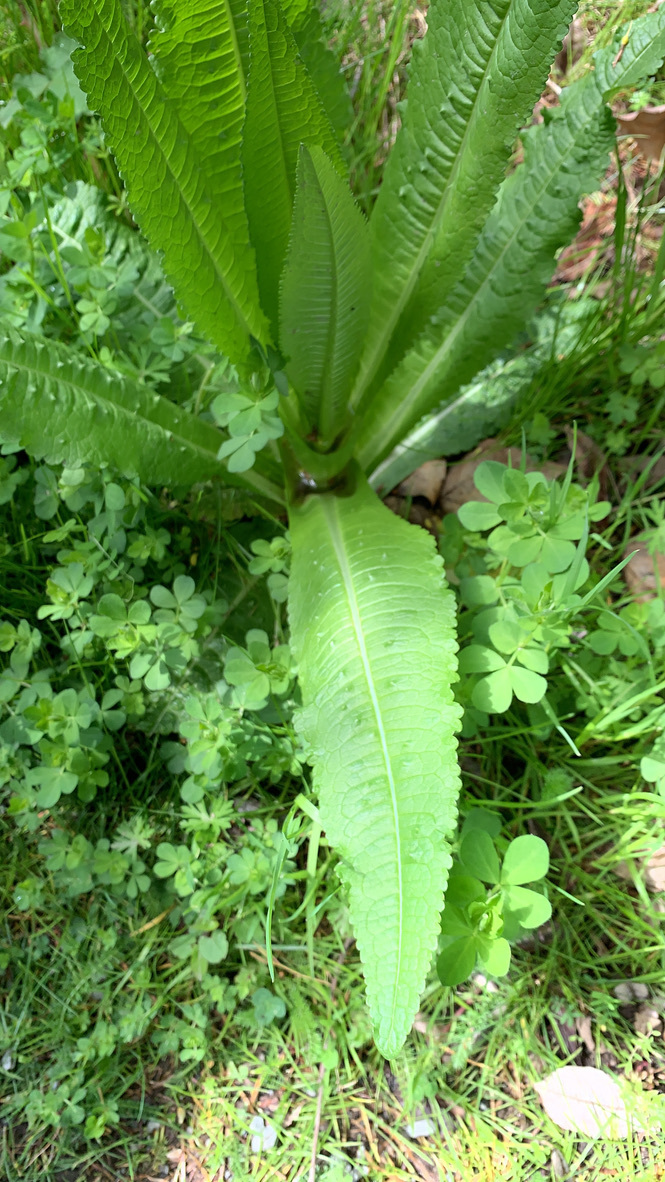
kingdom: Plantae
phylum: Tracheophyta
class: Magnoliopsida
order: Dipsacales
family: Caprifoliaceae
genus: Dipsacus
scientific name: Dipsacus fullonum
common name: Teasel
